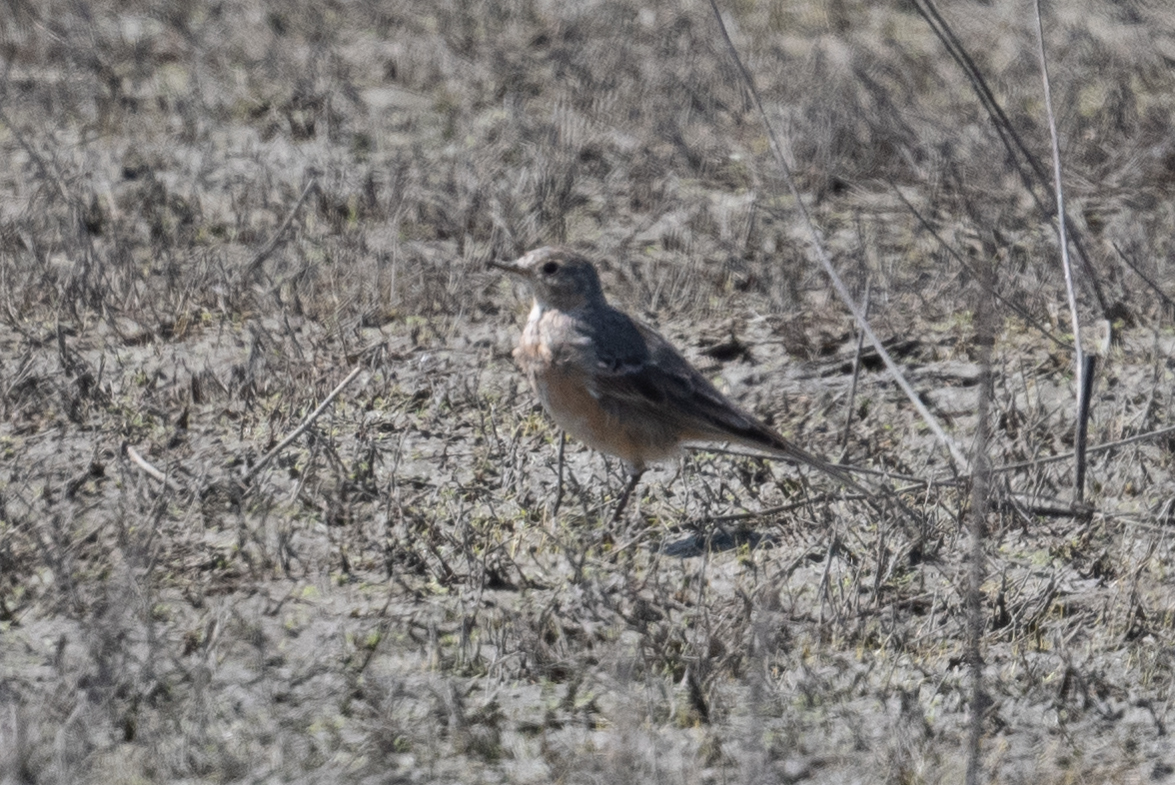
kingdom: Animalia
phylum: Chordata
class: Aves
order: Passeriformes
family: Motacillidae
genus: Anthus
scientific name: Anthus rubescens
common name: Buff-bellied pipit
